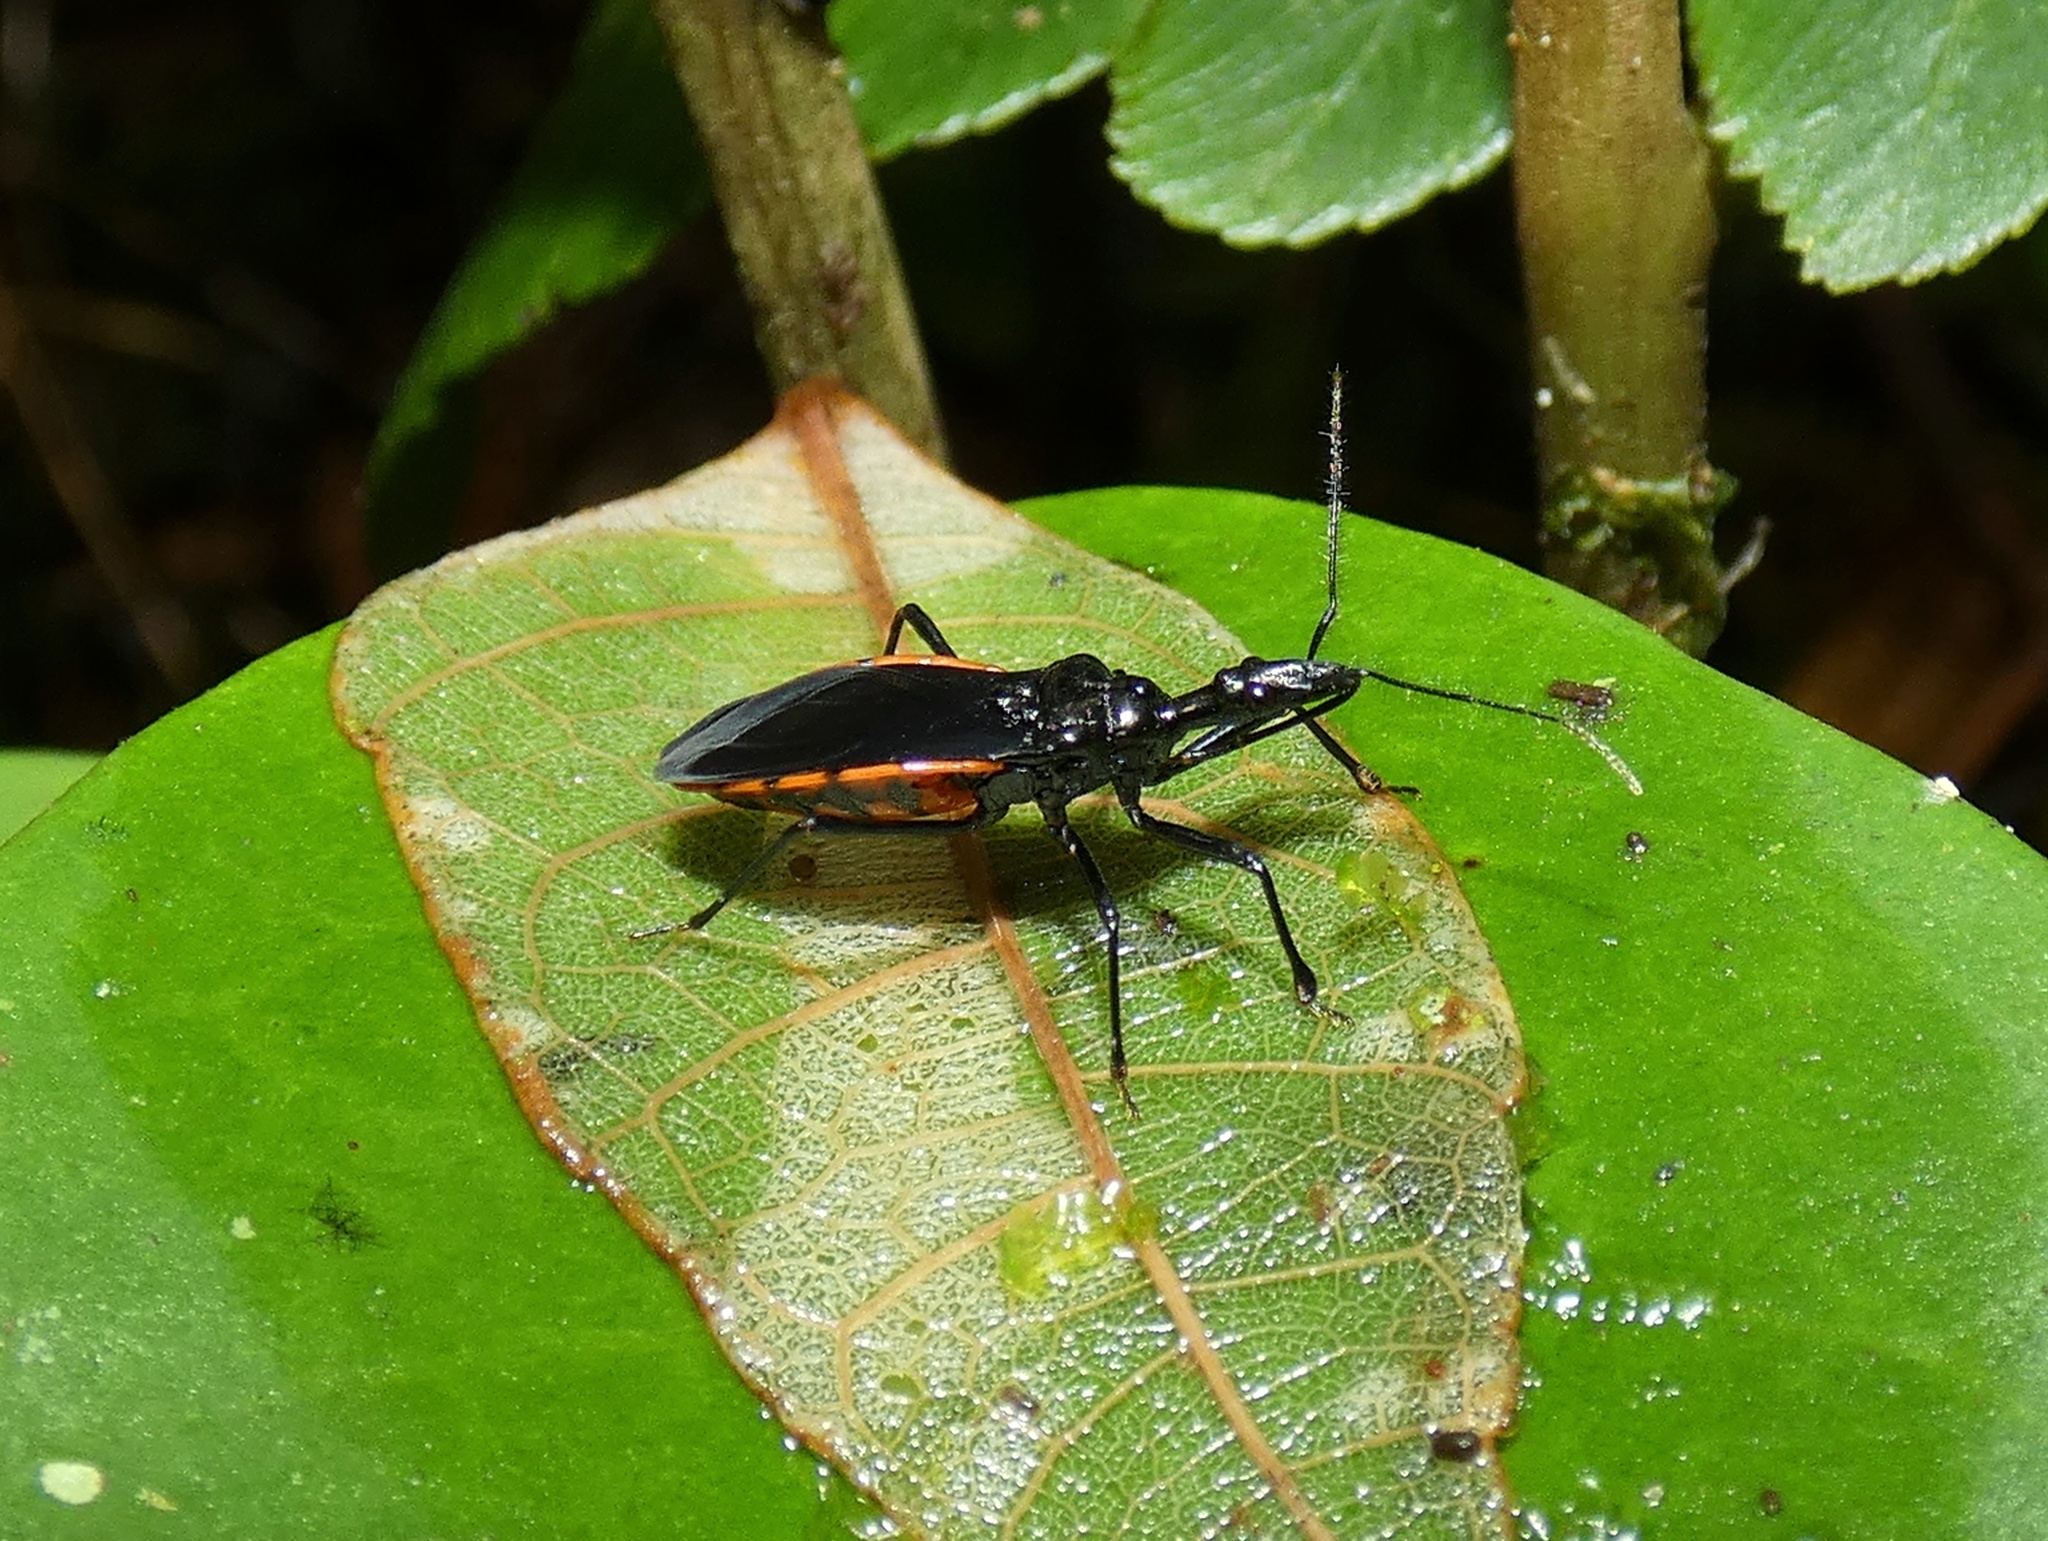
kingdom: Animalia
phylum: Arthropoda
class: Insecta
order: Hemiptera
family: Reduviidae
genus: Pothea
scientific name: Pothea lugens
